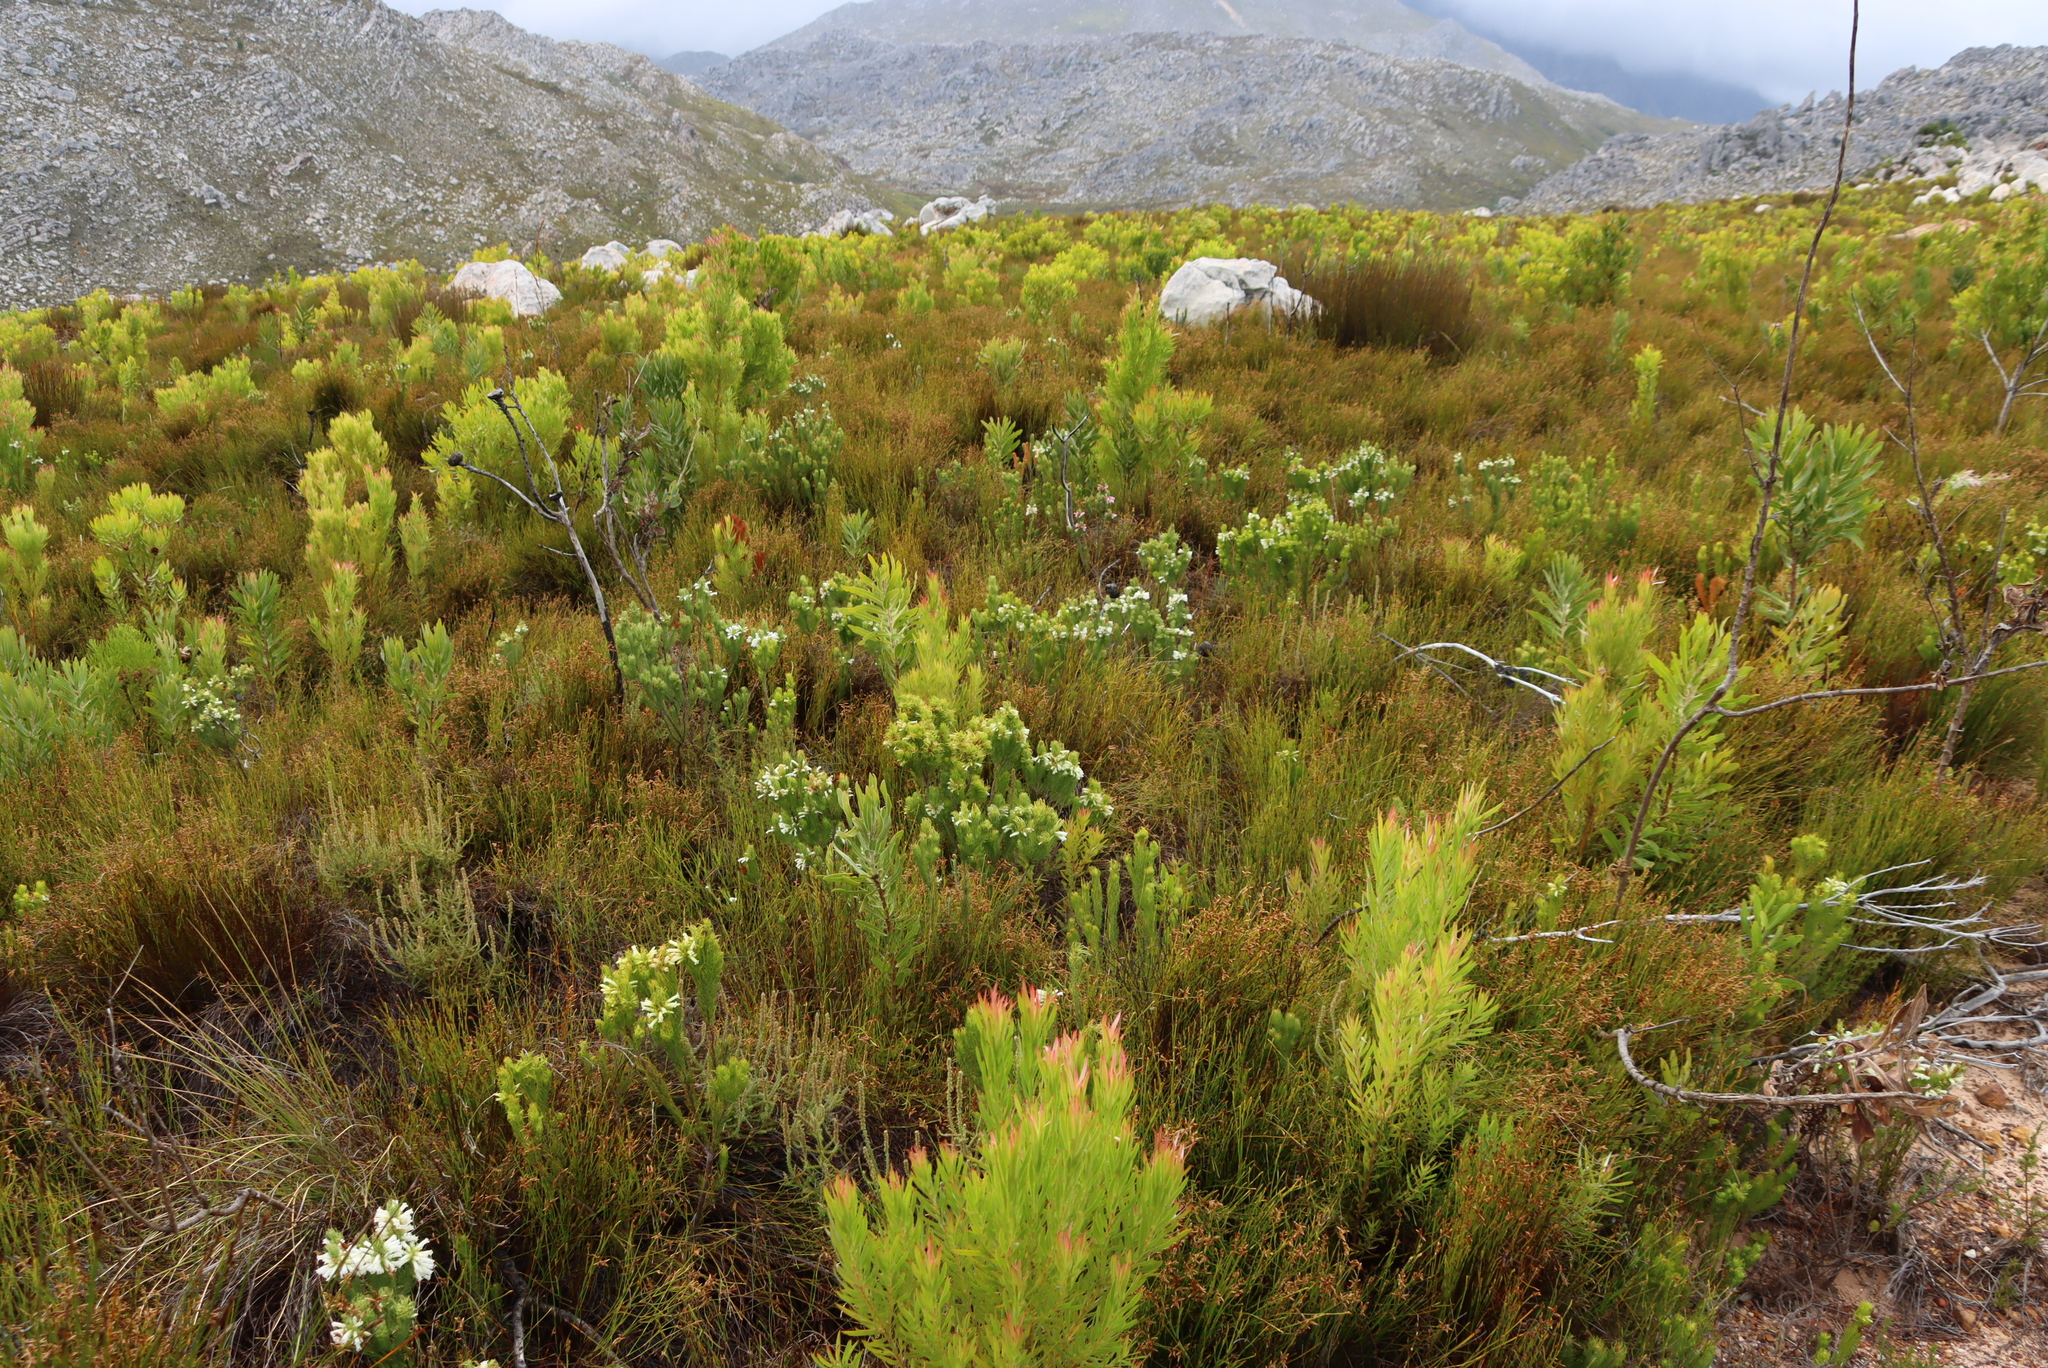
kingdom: Plantae
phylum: Tracheophyta
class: Magnoliopsida
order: Ericales
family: Ericaceae
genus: Erica
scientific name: Erica viscaria
